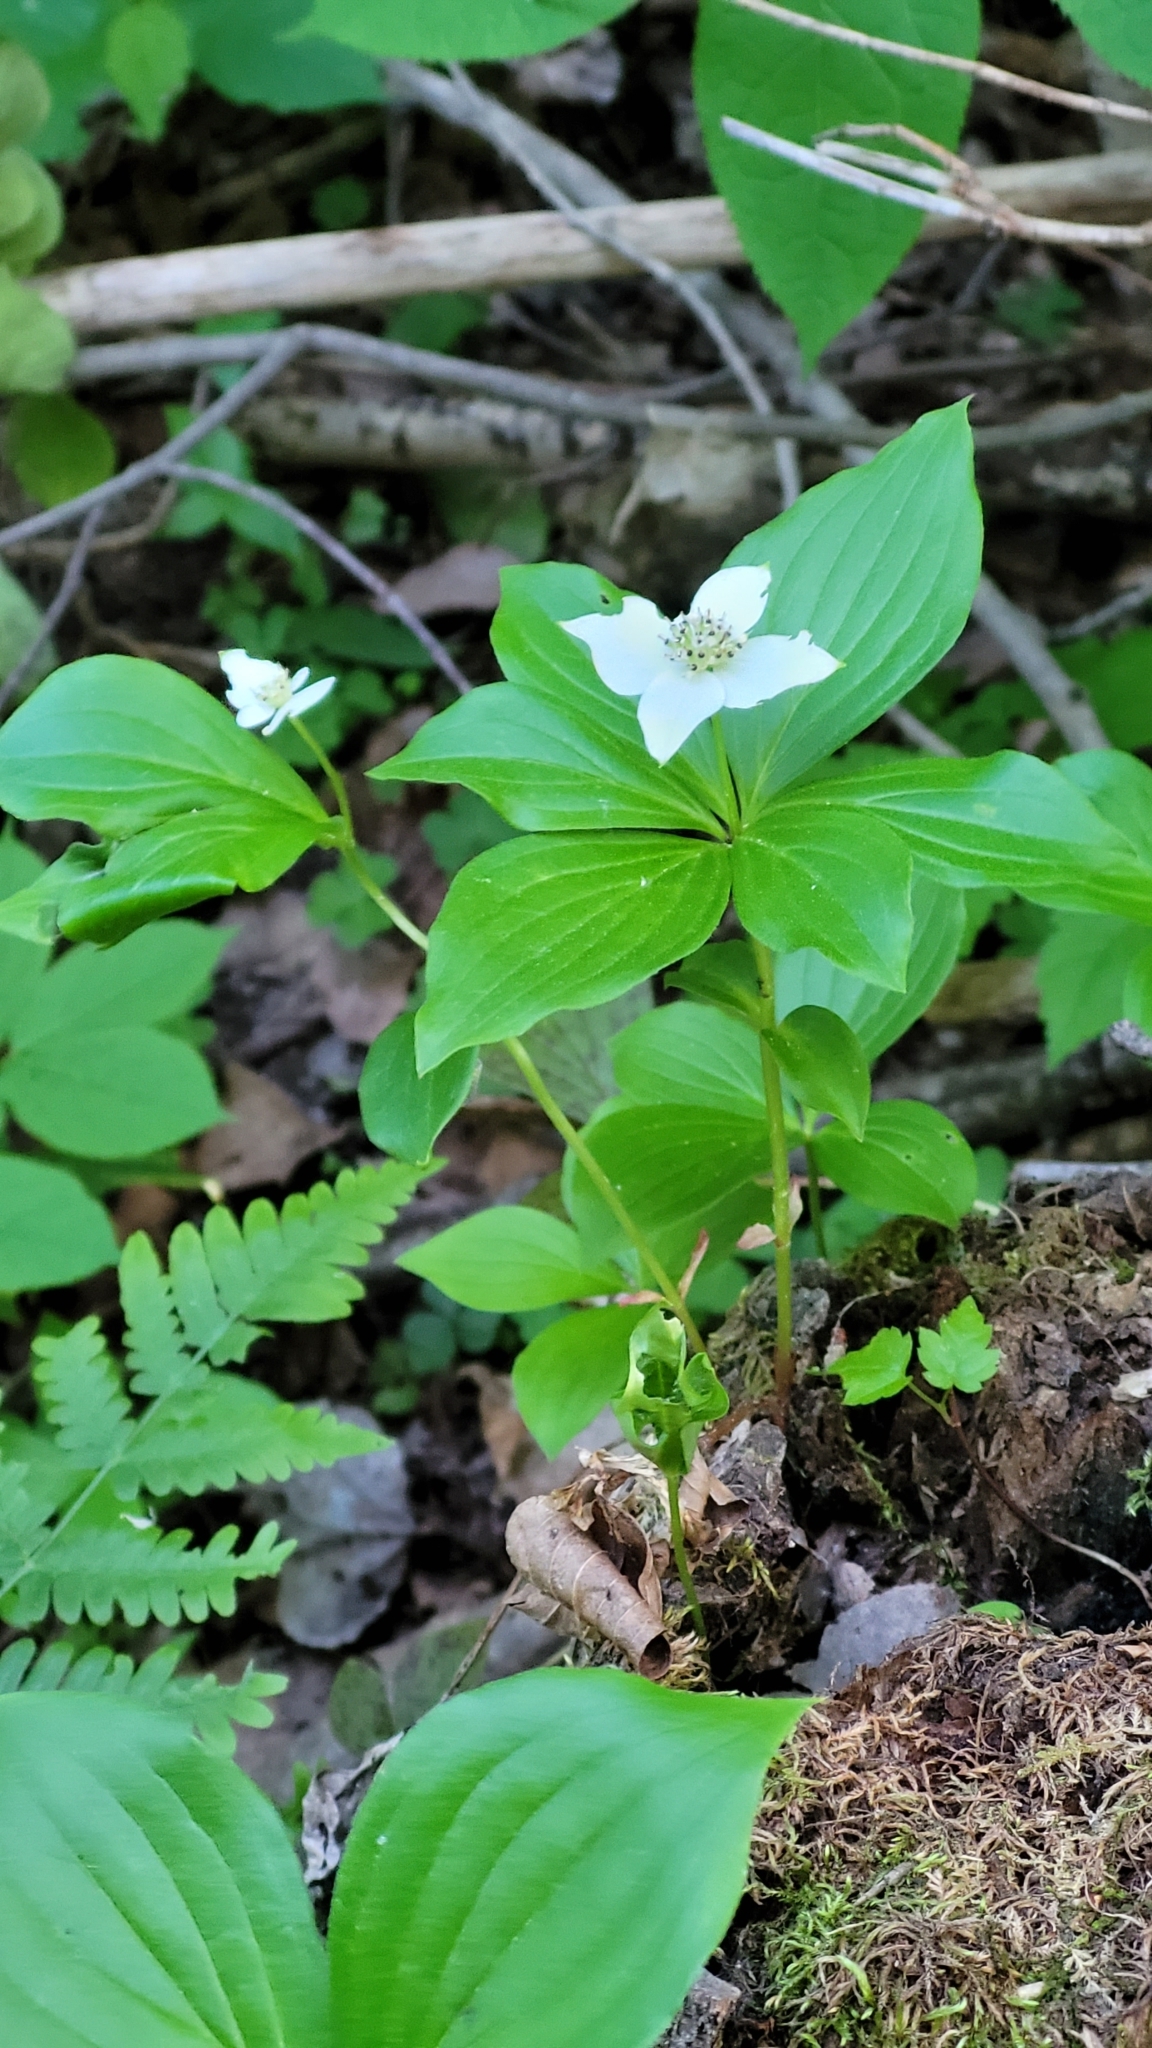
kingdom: Plantae
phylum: Tracheophyta
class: Magnoliopsida
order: Cornales
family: Cornaceae
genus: Cornus
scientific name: Cornus canadensis
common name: Creeping dogwood
